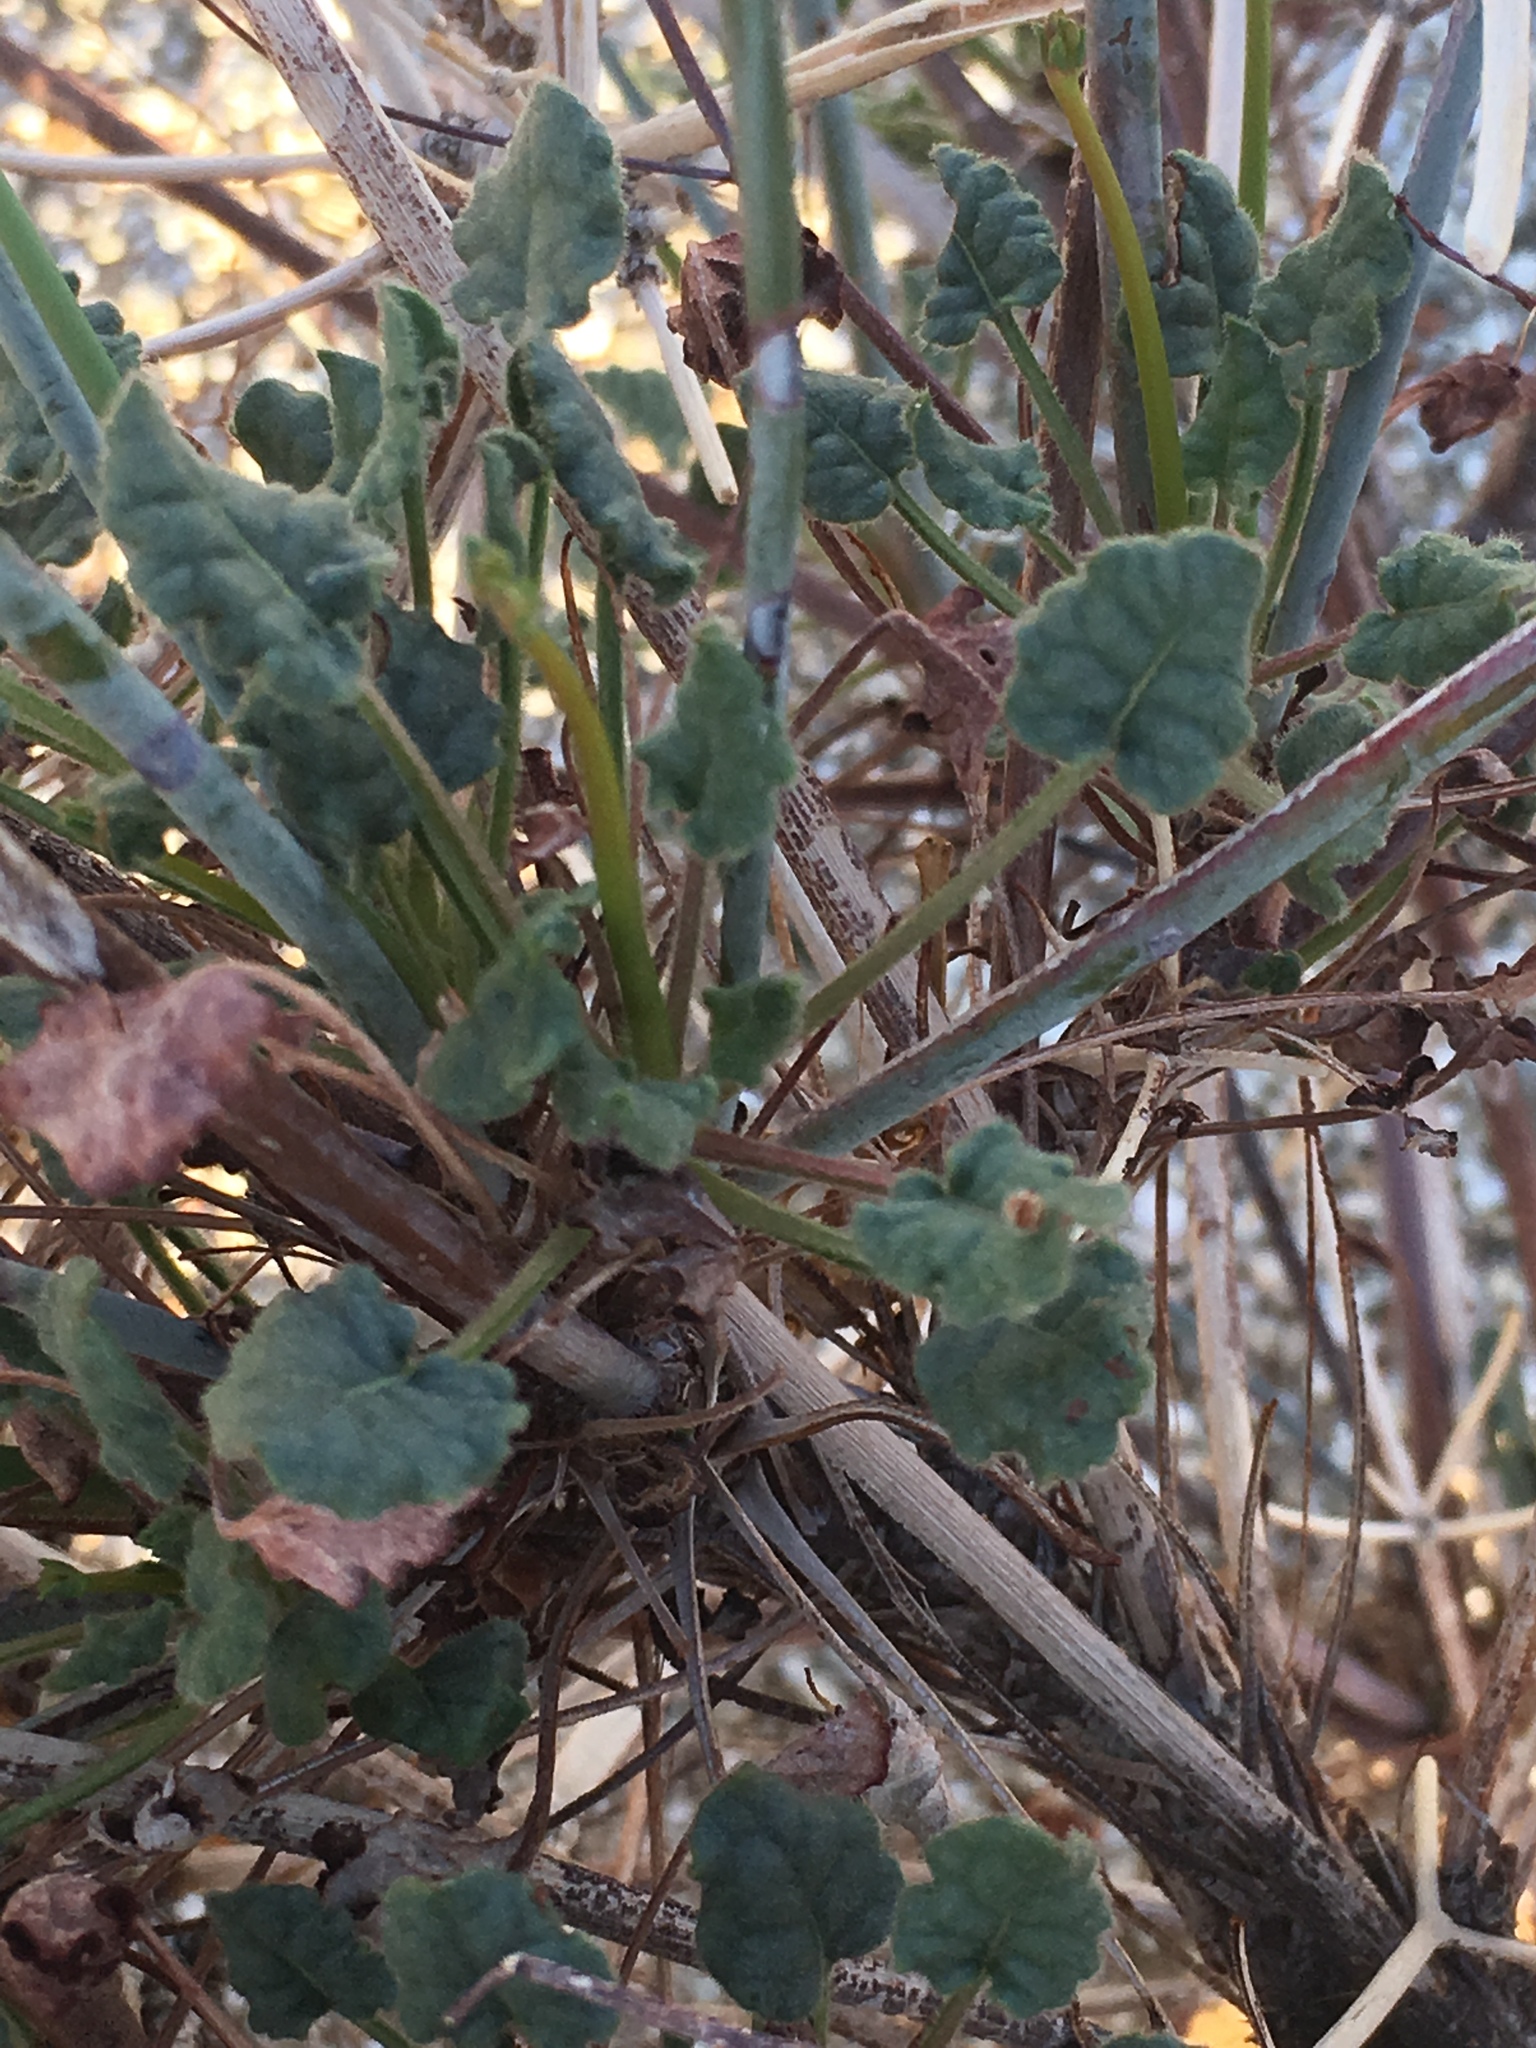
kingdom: Plantae
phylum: Tracheophyta
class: Magnoliopsida
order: Caryophyllales
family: Polygonaceae
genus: Eriogonum
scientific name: Eriogonum inflatum
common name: Desert trumpet
